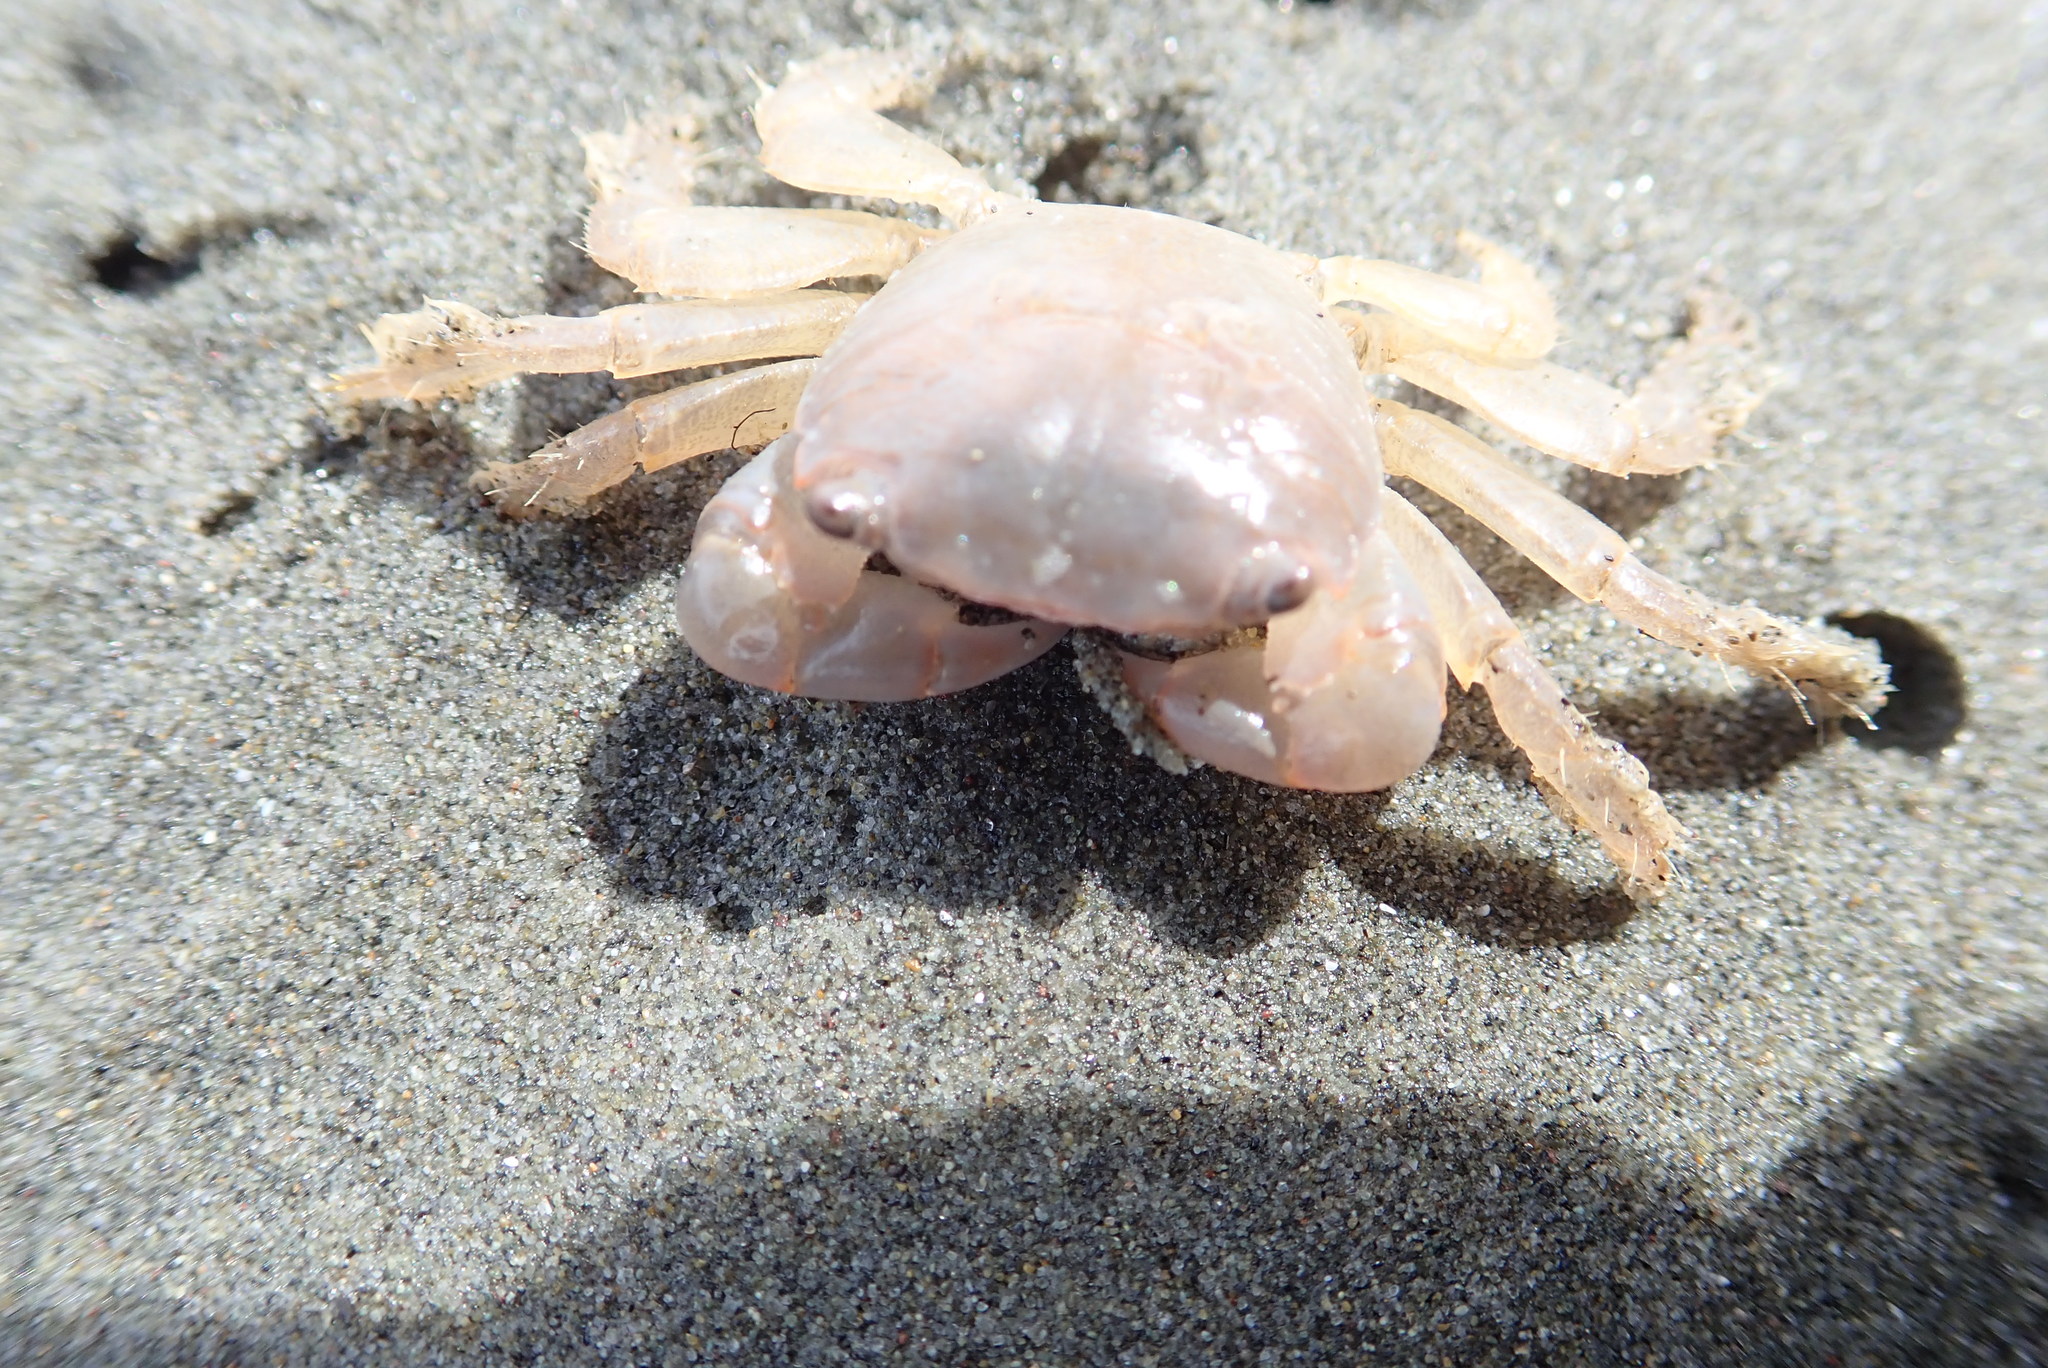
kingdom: Animalia
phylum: Arthropoda
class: Malacostraca
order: Decapoda
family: Grapsidae
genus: Planes
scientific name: Planes minutus
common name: Gulf weed crab
